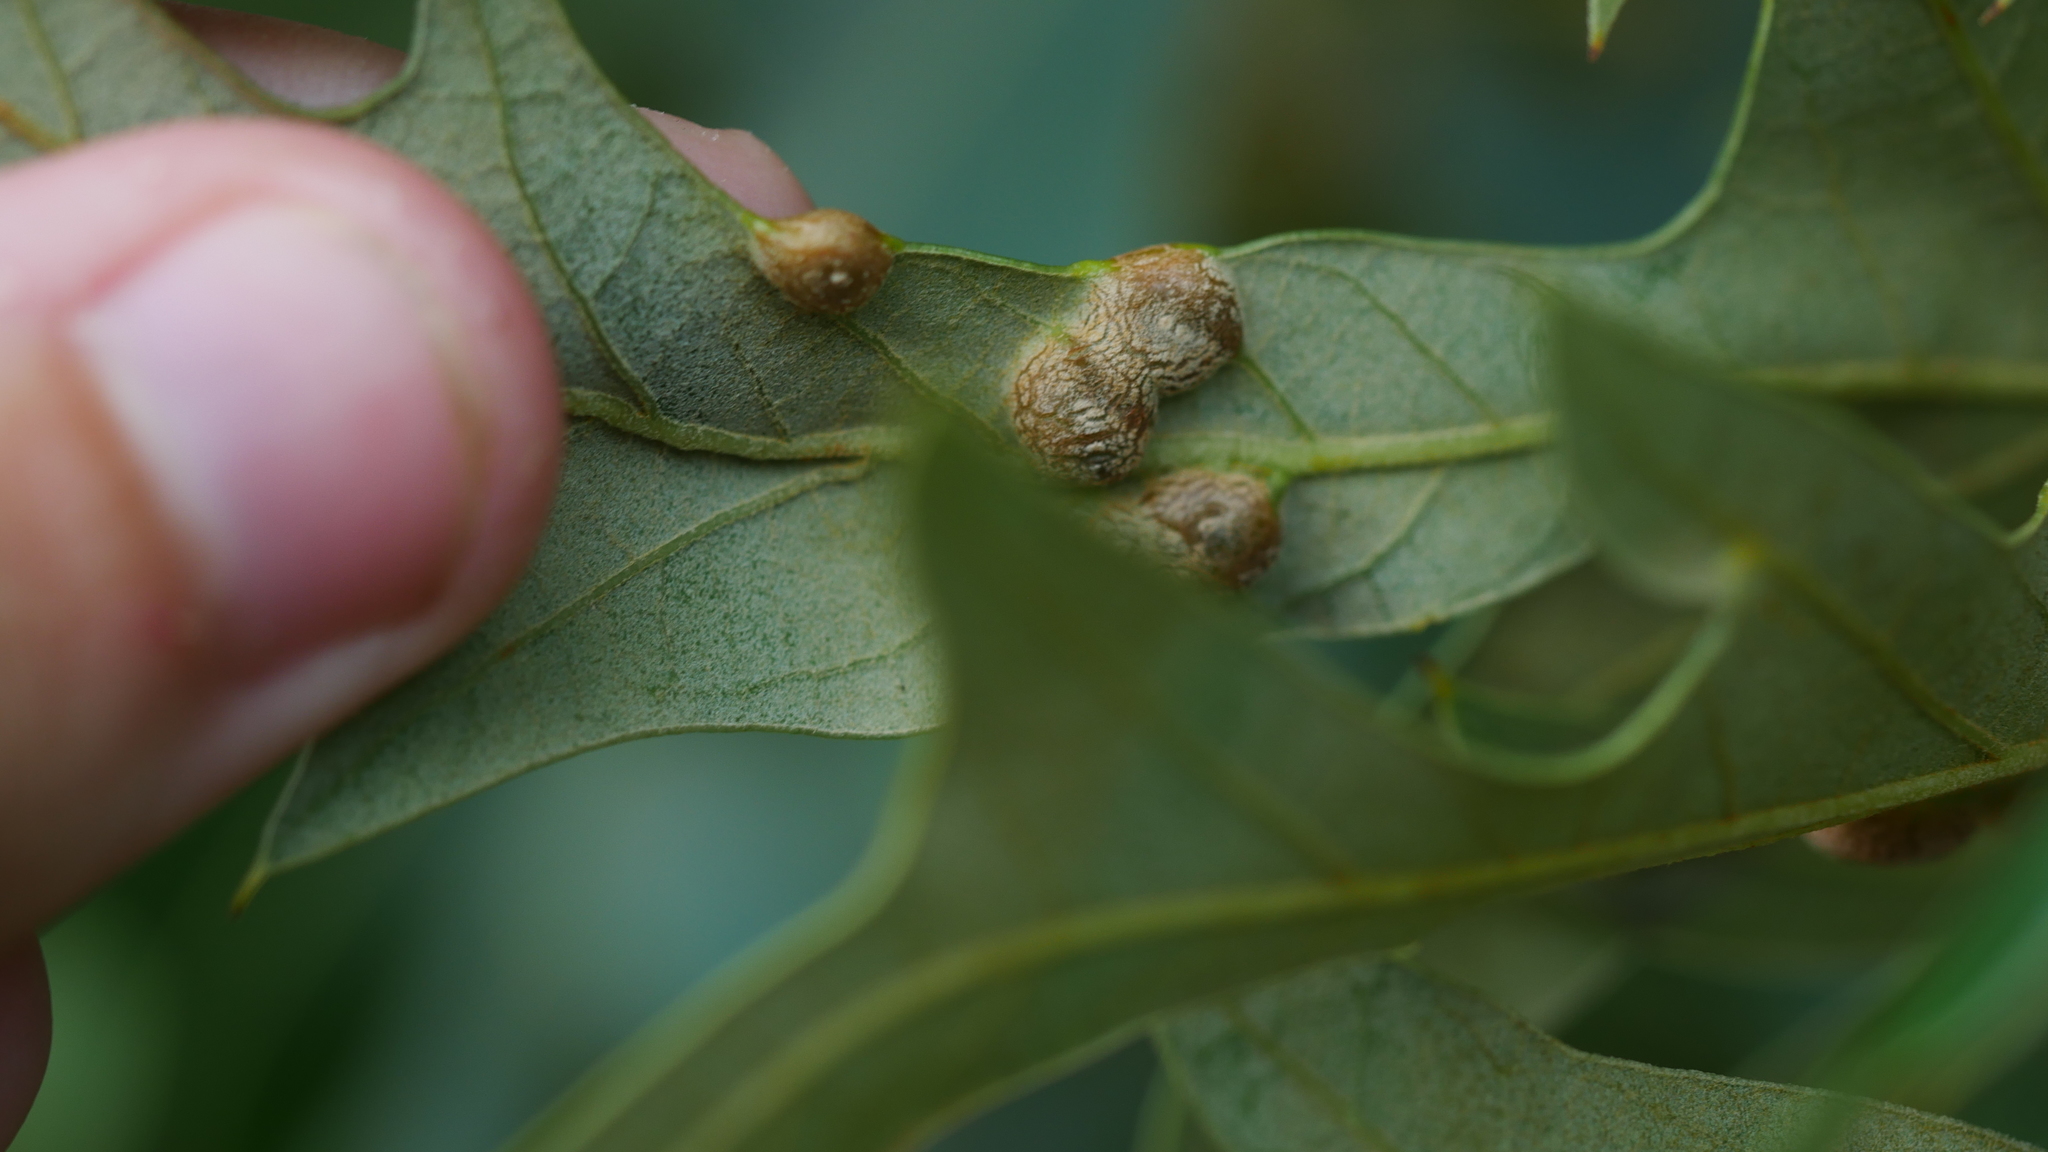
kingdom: Animalia
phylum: Arthropoda
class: Insecta
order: Diptera
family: Cecidomyiidae
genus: Polystepha
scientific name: Polystepha symmetrica
